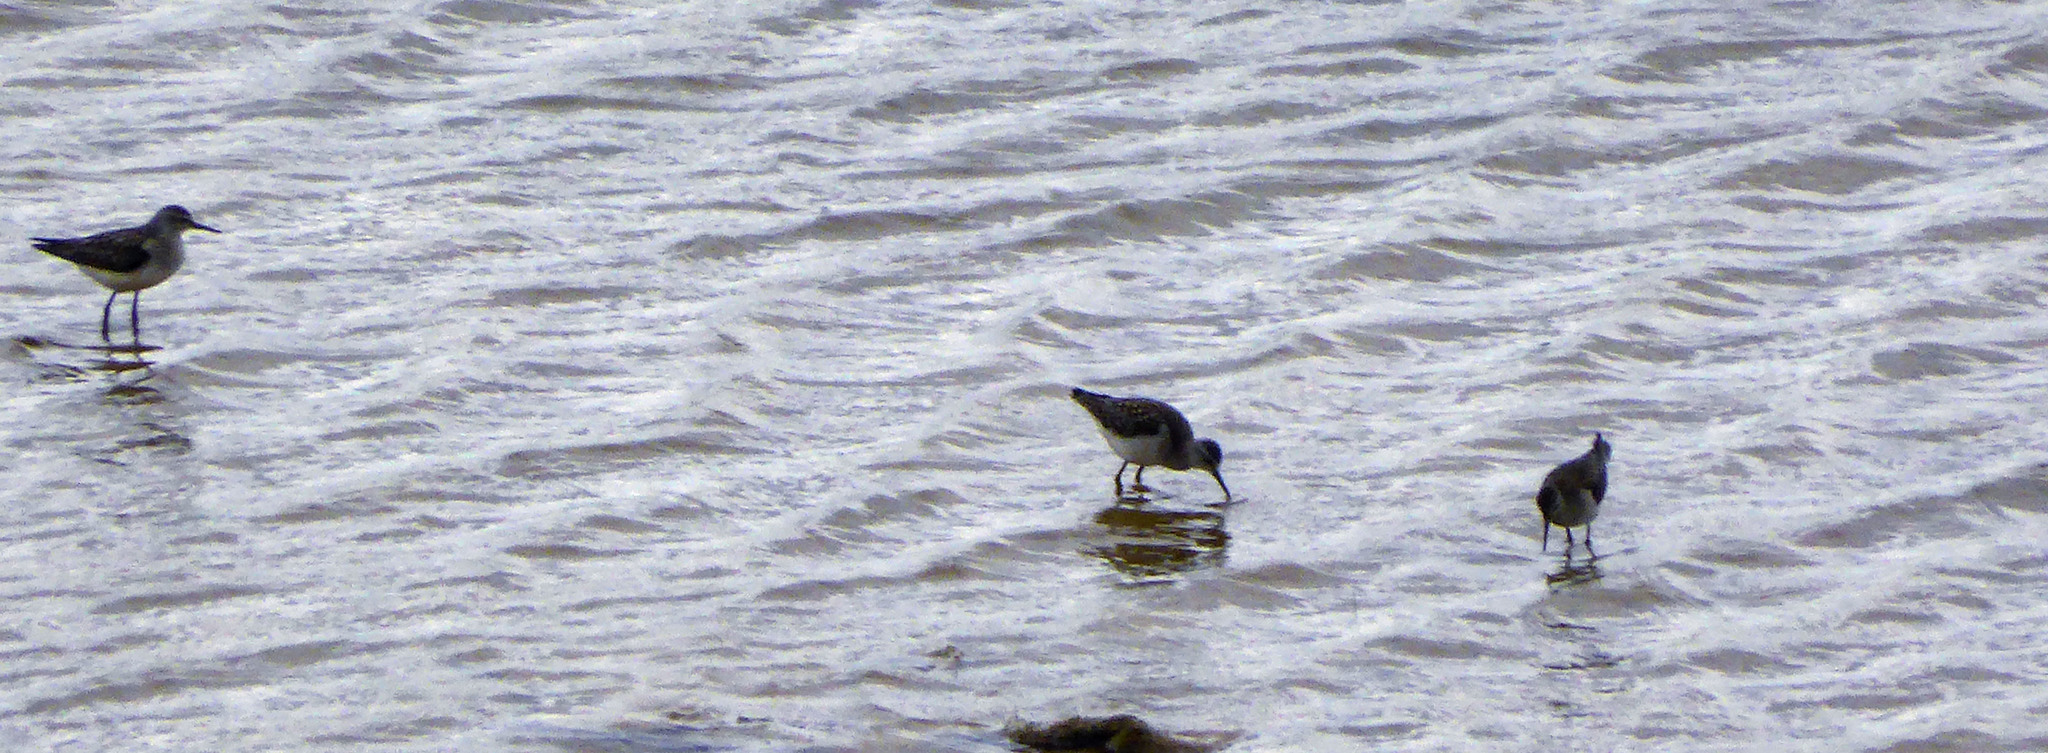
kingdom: Animalia
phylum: Chordata
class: Aves
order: Charadriiformes
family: Scolopacidae
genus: Tringa
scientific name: Tringa glareola
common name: Wood sandpiper
